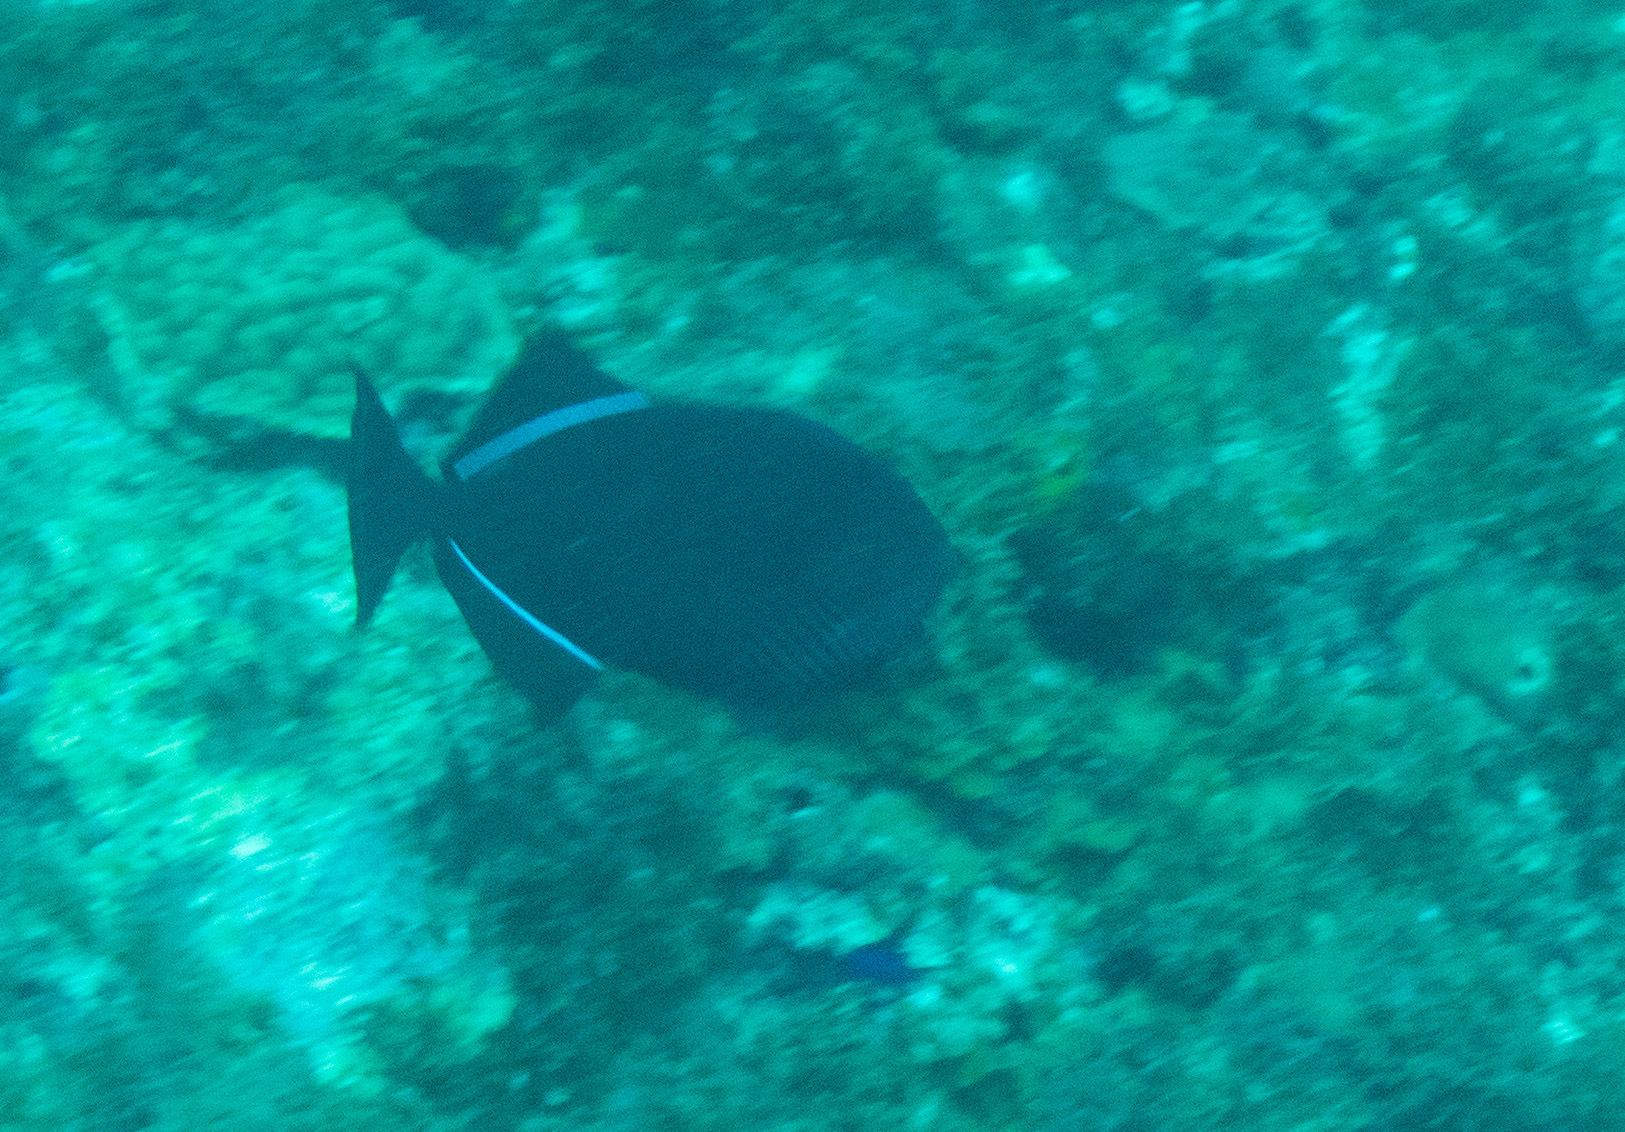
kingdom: Animalia
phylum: Chordata
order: Tetraodontiformes
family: Balistidae
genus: Melichthys
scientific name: Melichthys niger
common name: Black durgon
